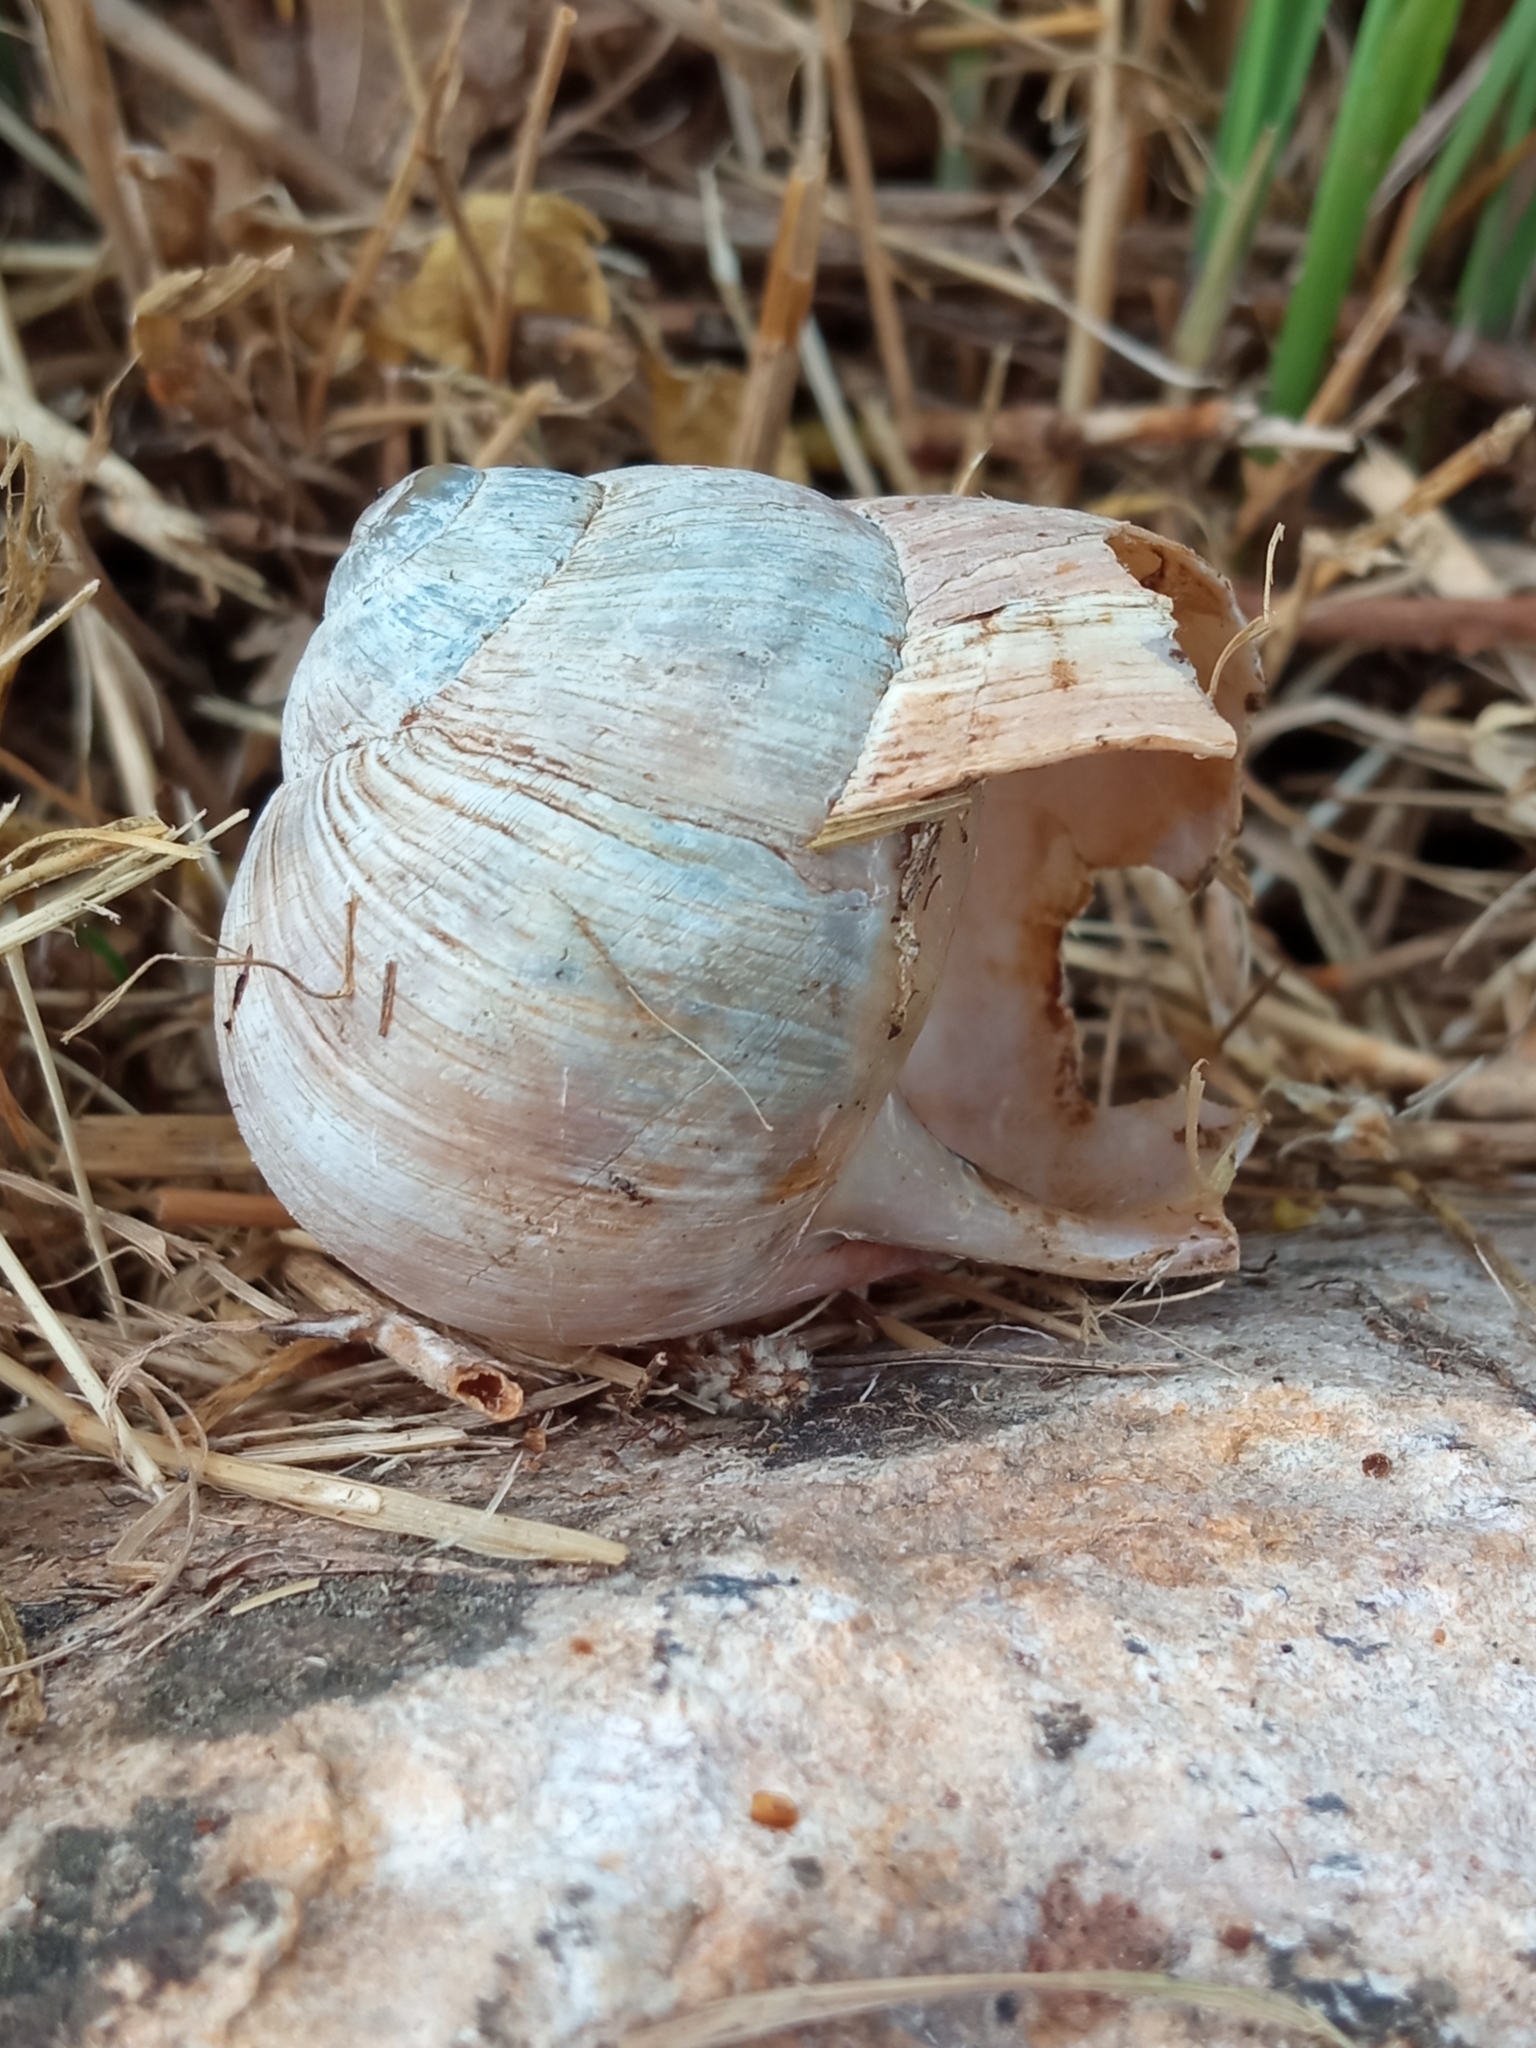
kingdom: Animalia
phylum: Mollusca
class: Gastropoda
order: Stylommatophora
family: Helicidae
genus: Helix
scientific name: Helix pomatia
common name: Roman snail
